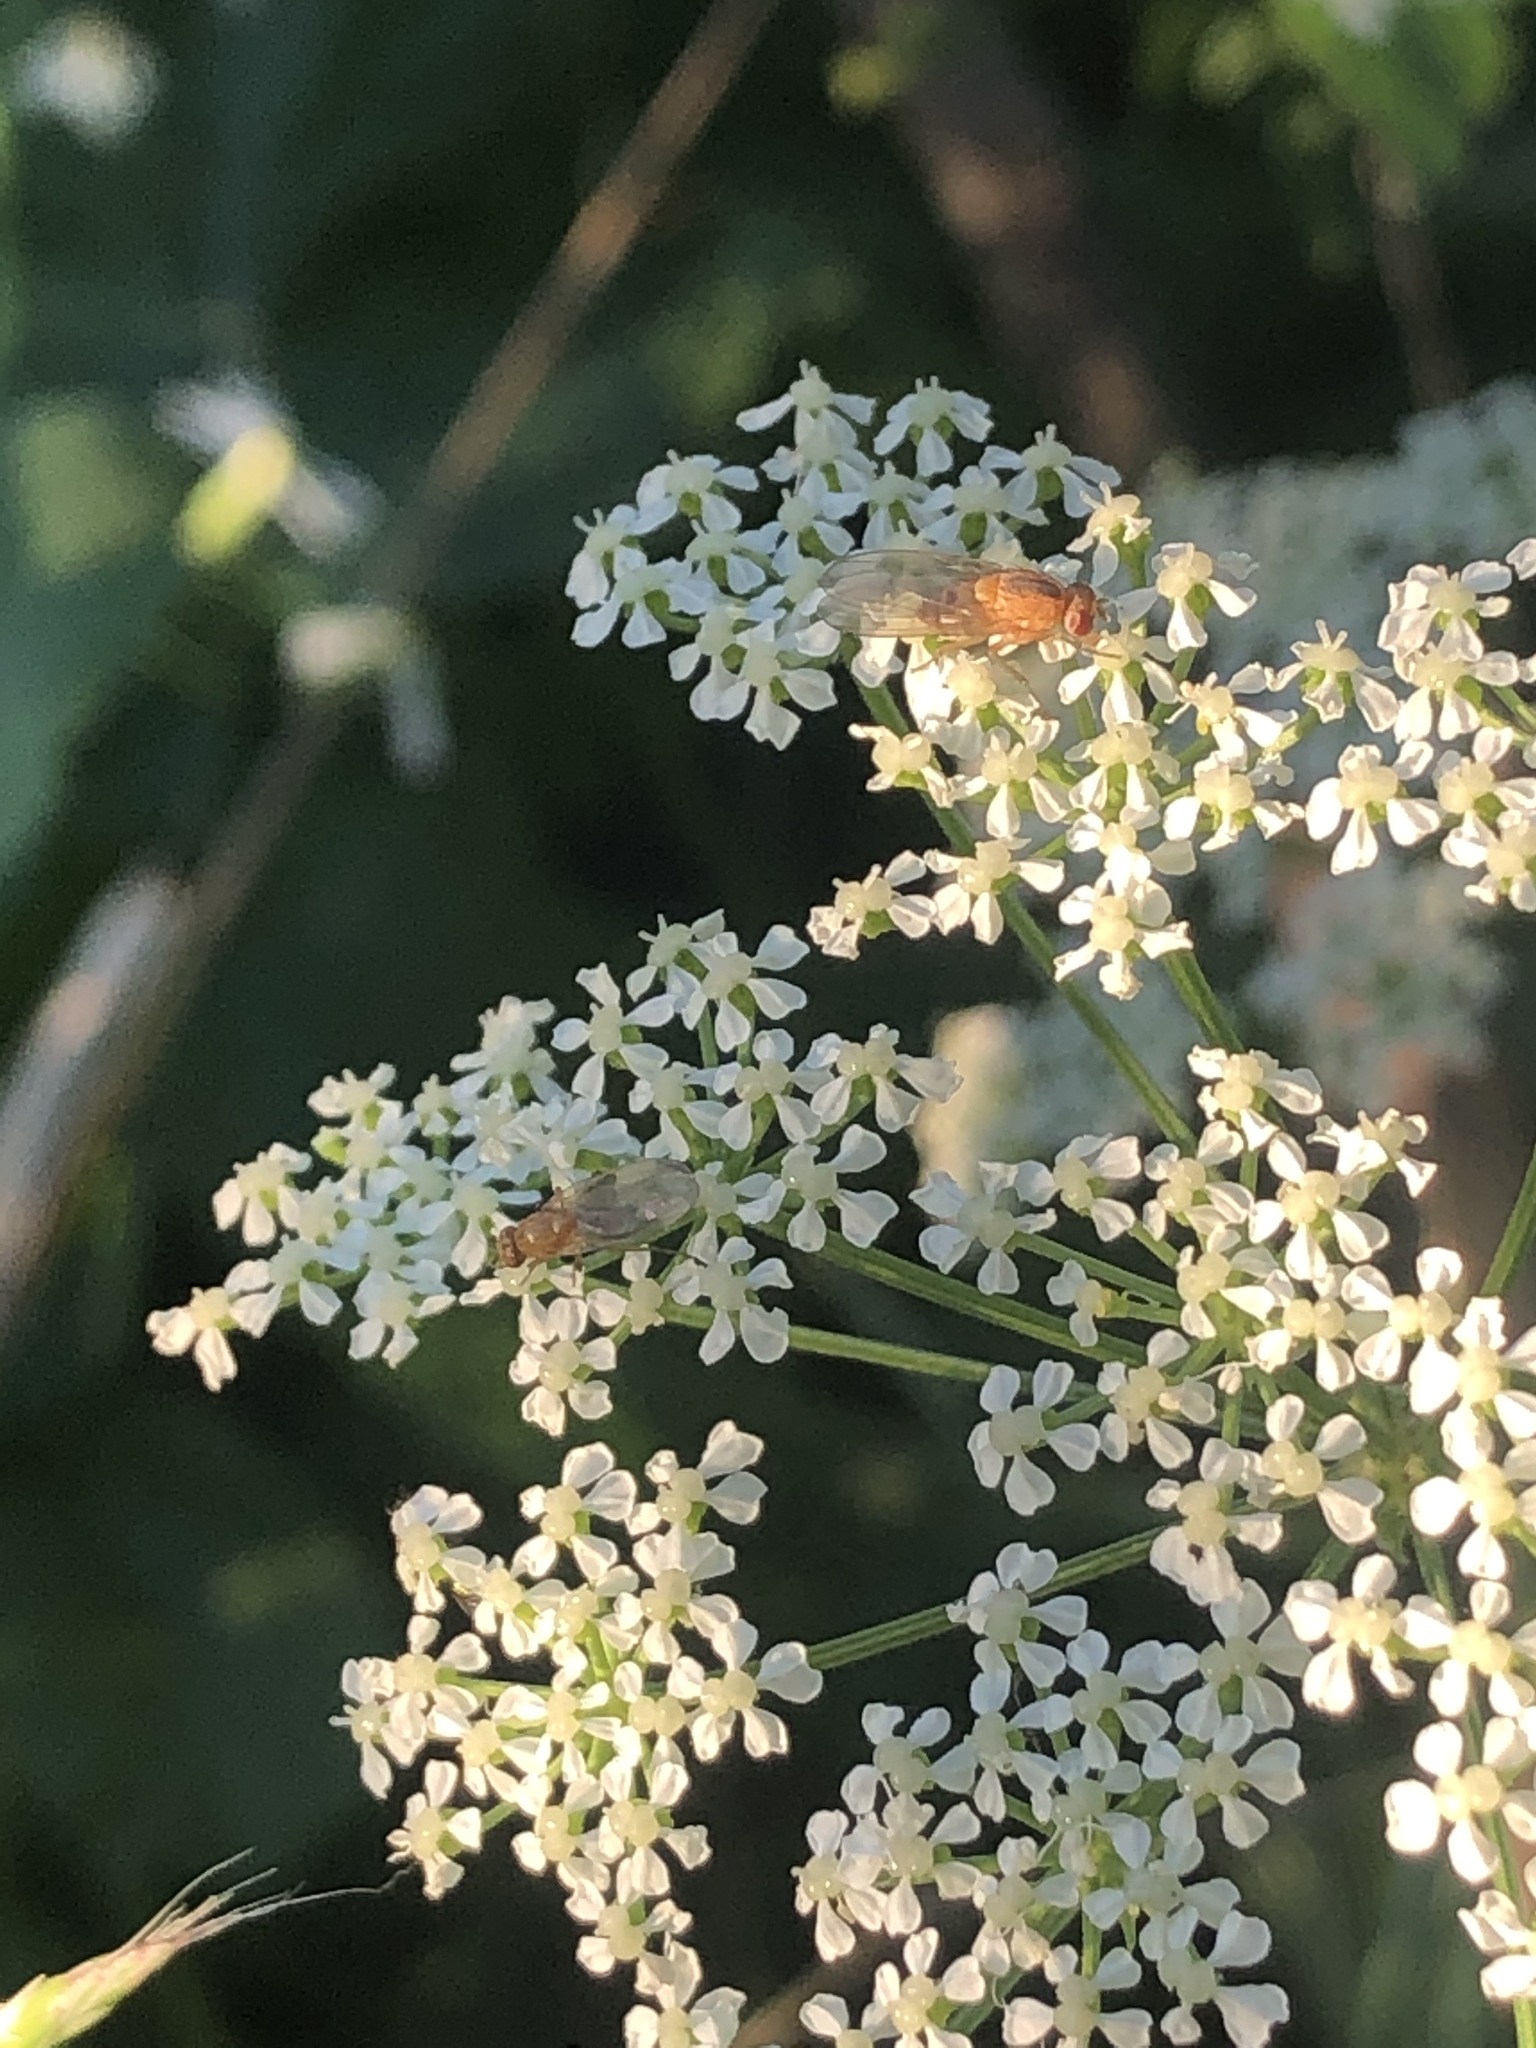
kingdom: Plantae
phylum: Tracheophyta
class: Magnoliopsida
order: Apiales
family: Apiaceae
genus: Conium
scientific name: Conium maculatum
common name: Hemlock
